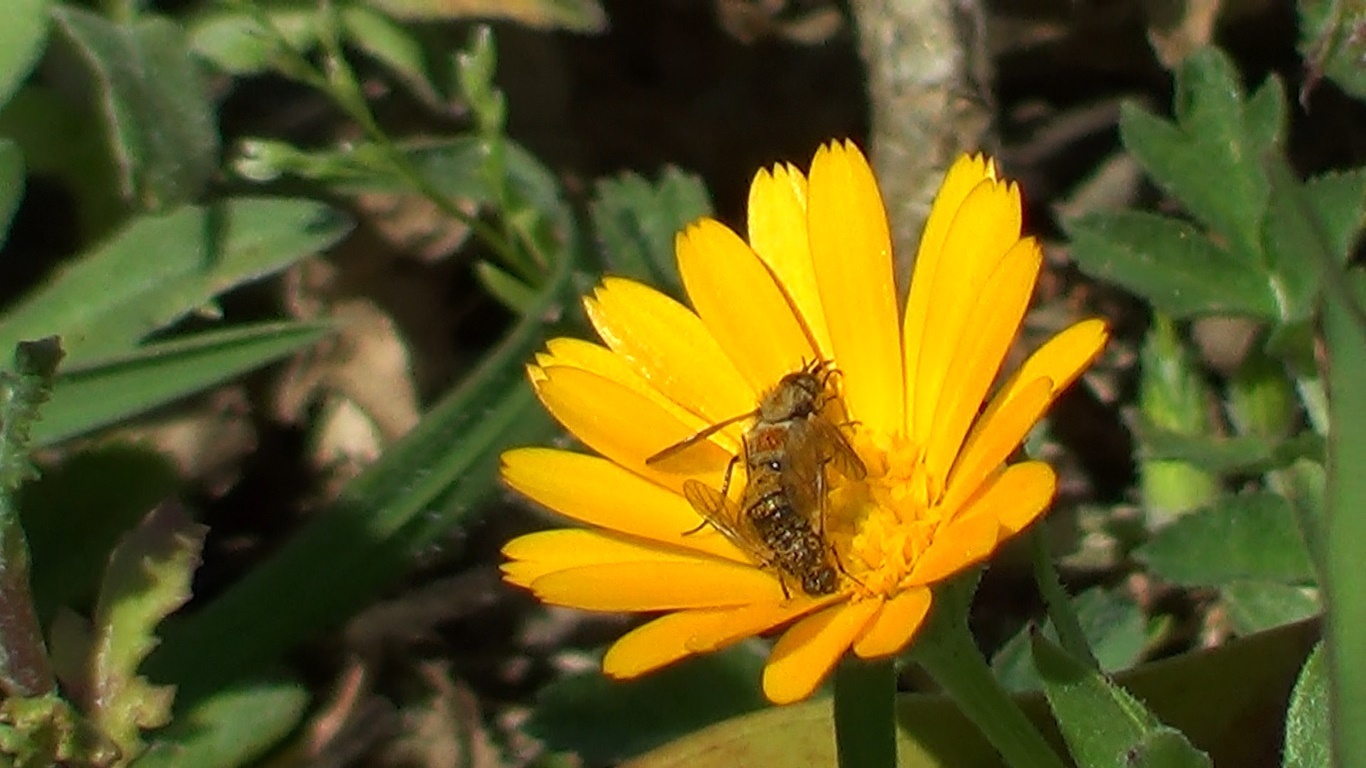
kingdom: Animalia
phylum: Arthropoda
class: Insecta
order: Diptera
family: Bombyliidae
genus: Usia
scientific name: Usia versicolor
